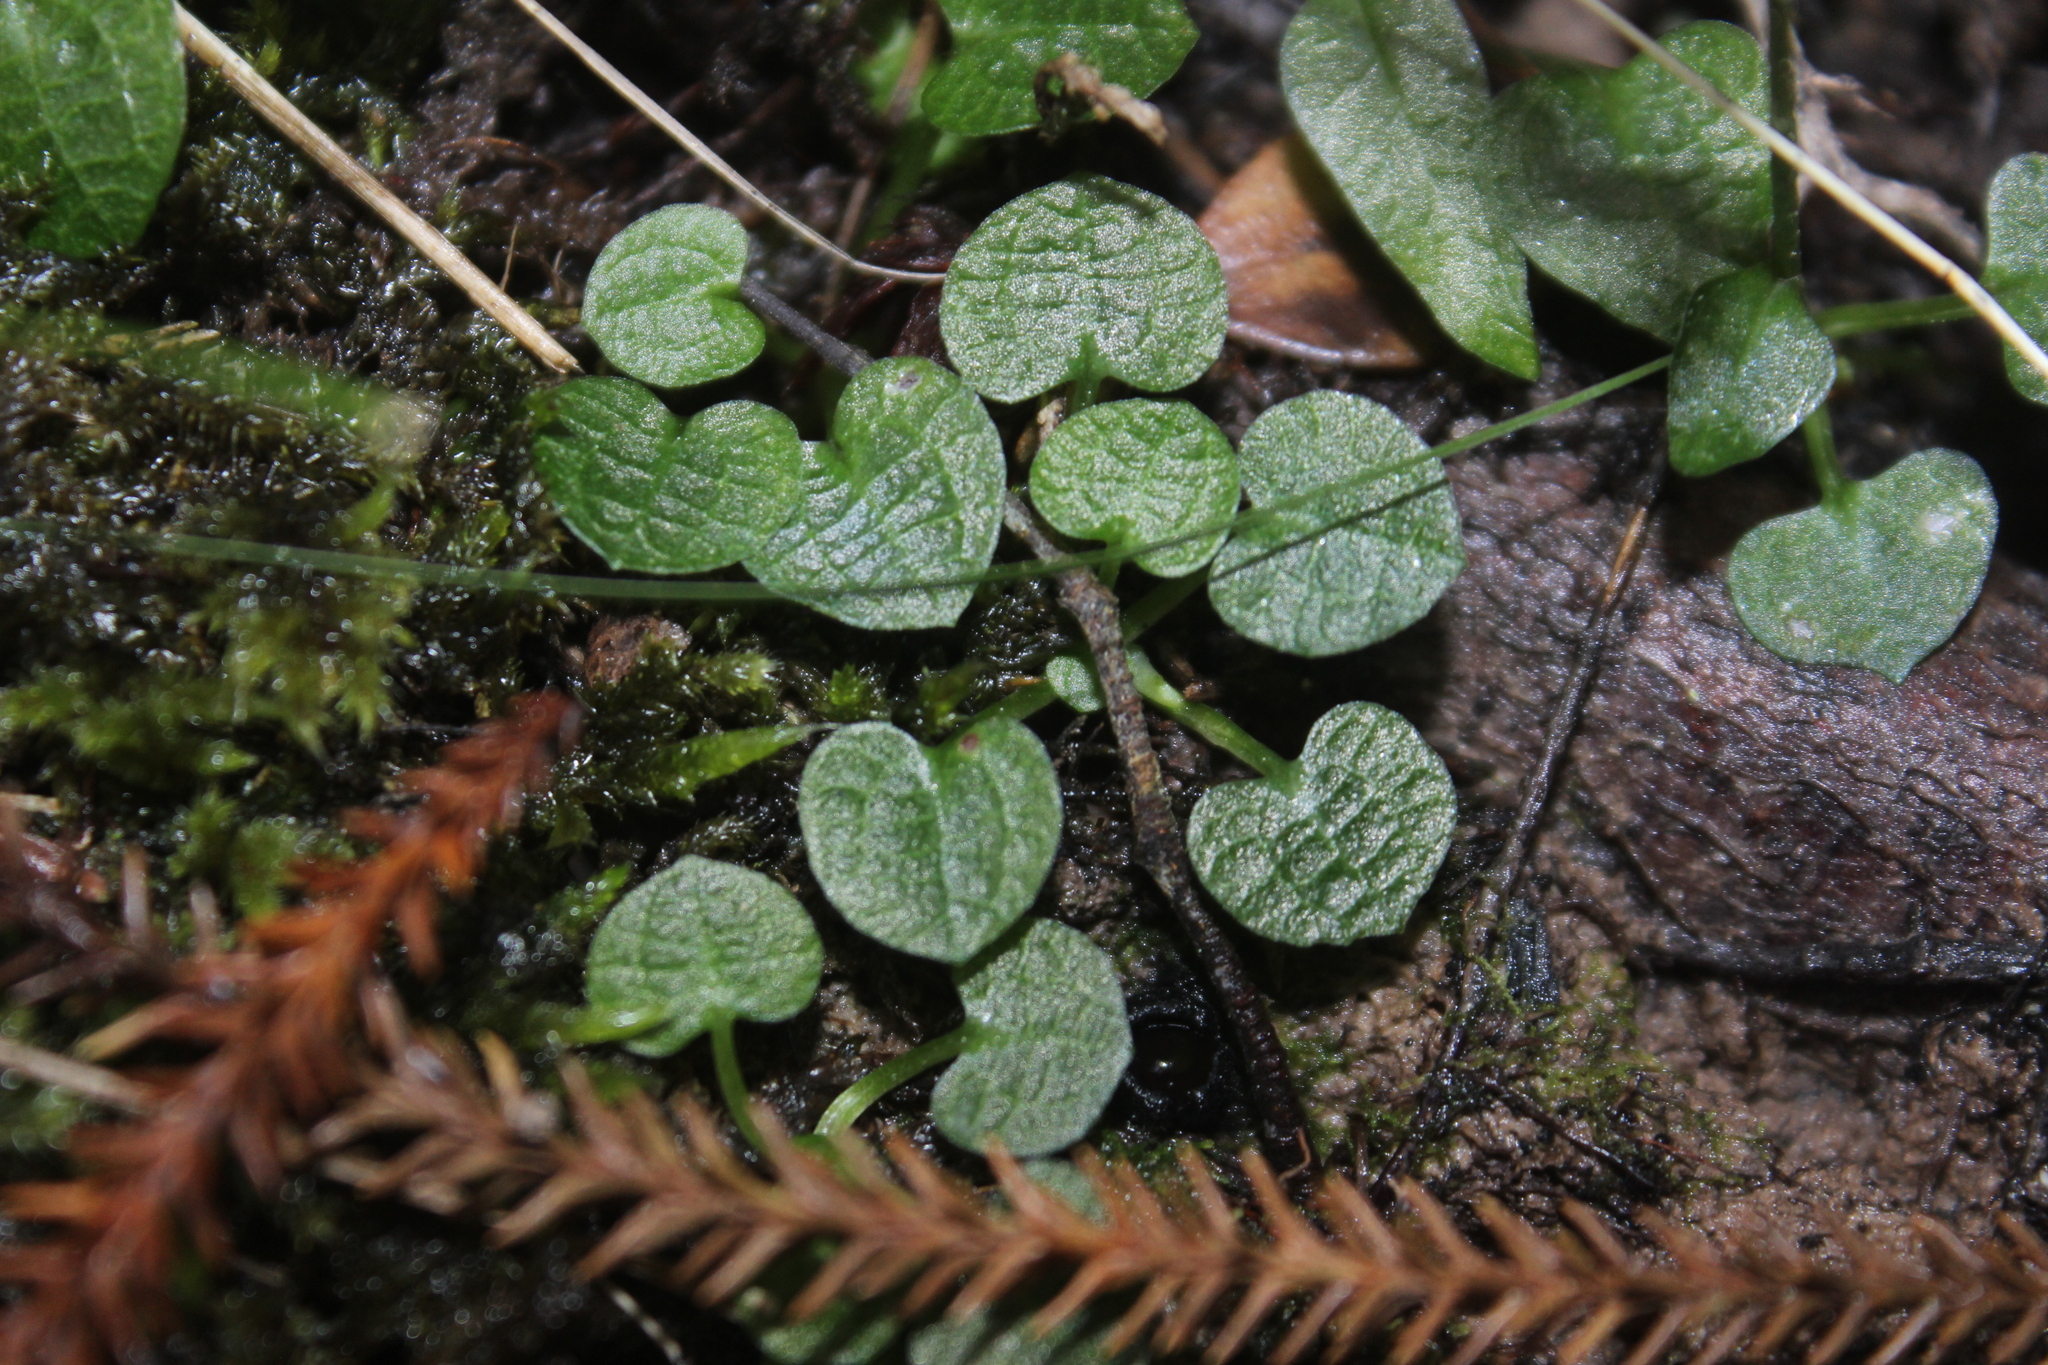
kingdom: Plantae
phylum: Tracheophyta
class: Liliopsida
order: Asparagales
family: Orchidaceae
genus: Pterostylis
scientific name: Pterostylis trullifolia
